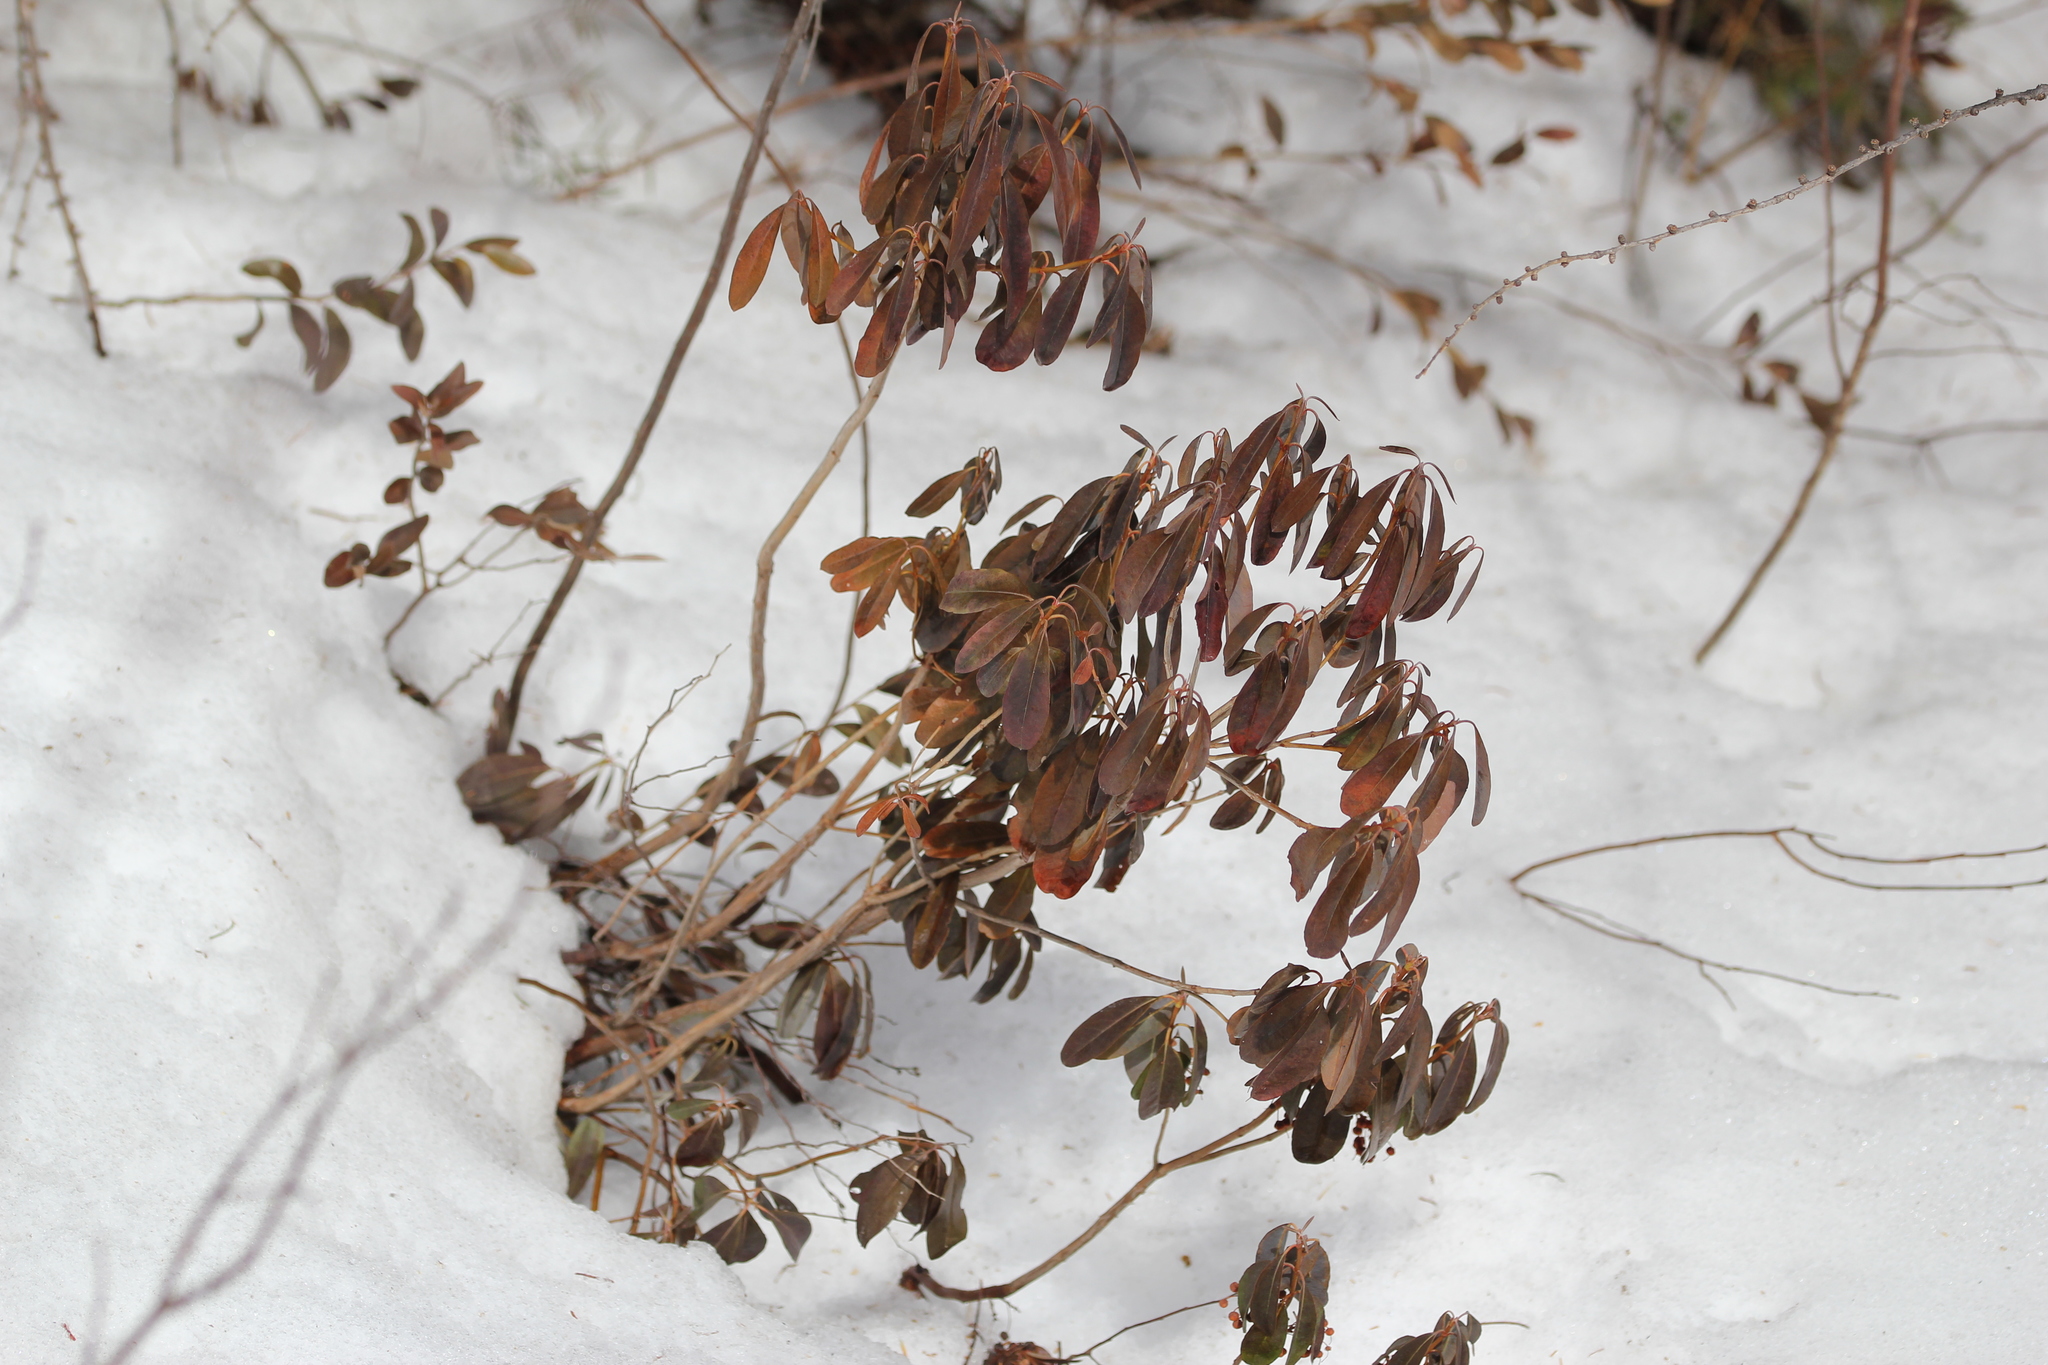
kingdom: Plantae
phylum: Tracheophyta
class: Magnoliopsida
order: Ericales
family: Ericaceae
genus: Kalmia
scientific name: Kalmia angustifolia
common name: Sheep-laurel
